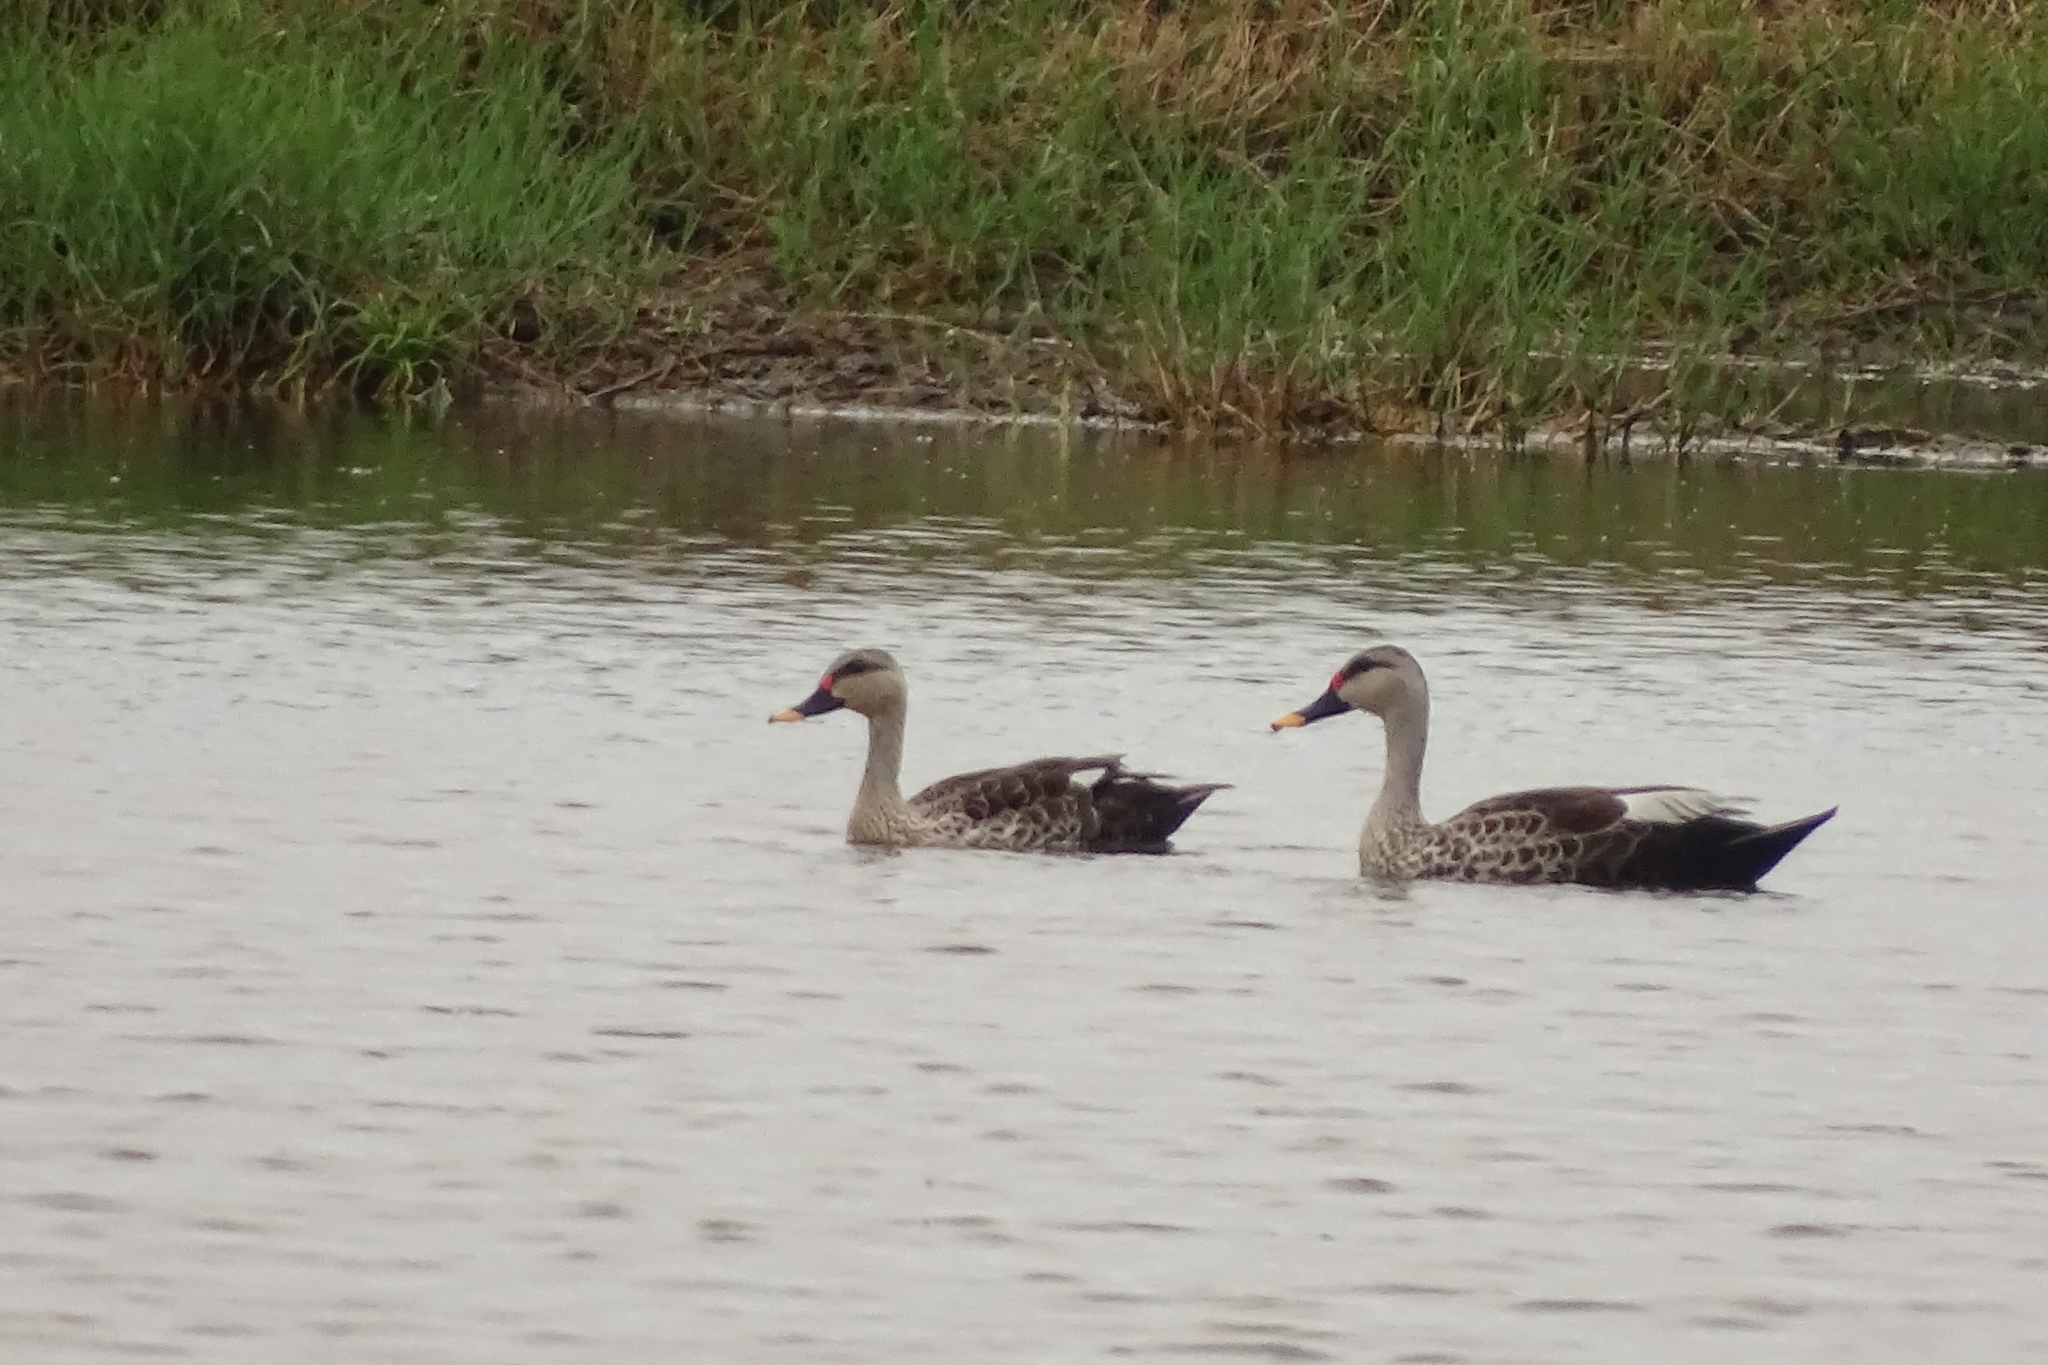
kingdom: Animalia
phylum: Chordata
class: Aves
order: Anseriformes
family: Anatidae
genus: Anas
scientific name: Anas poecilorhyncha
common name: Indian spot-billed duck
